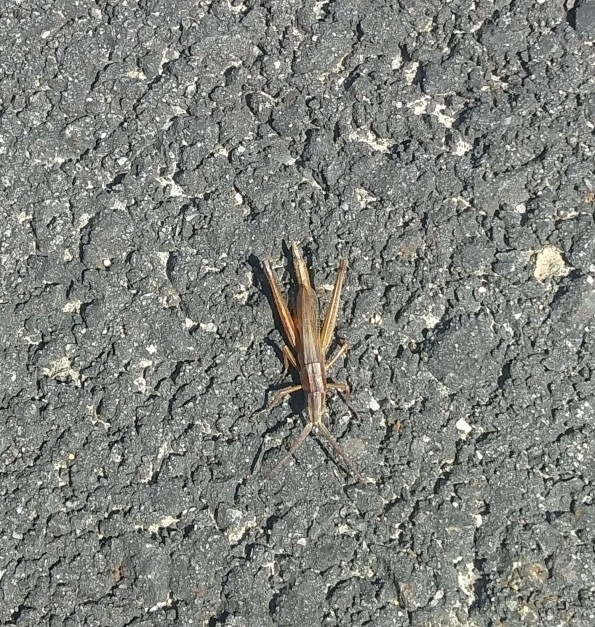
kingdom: Animalia
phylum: Arthropoda
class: Insecta
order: Orthoptera
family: Acrididae
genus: Pseudopomala
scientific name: Pseudopomala brachyptera
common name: Bunchgrass grasshopper
